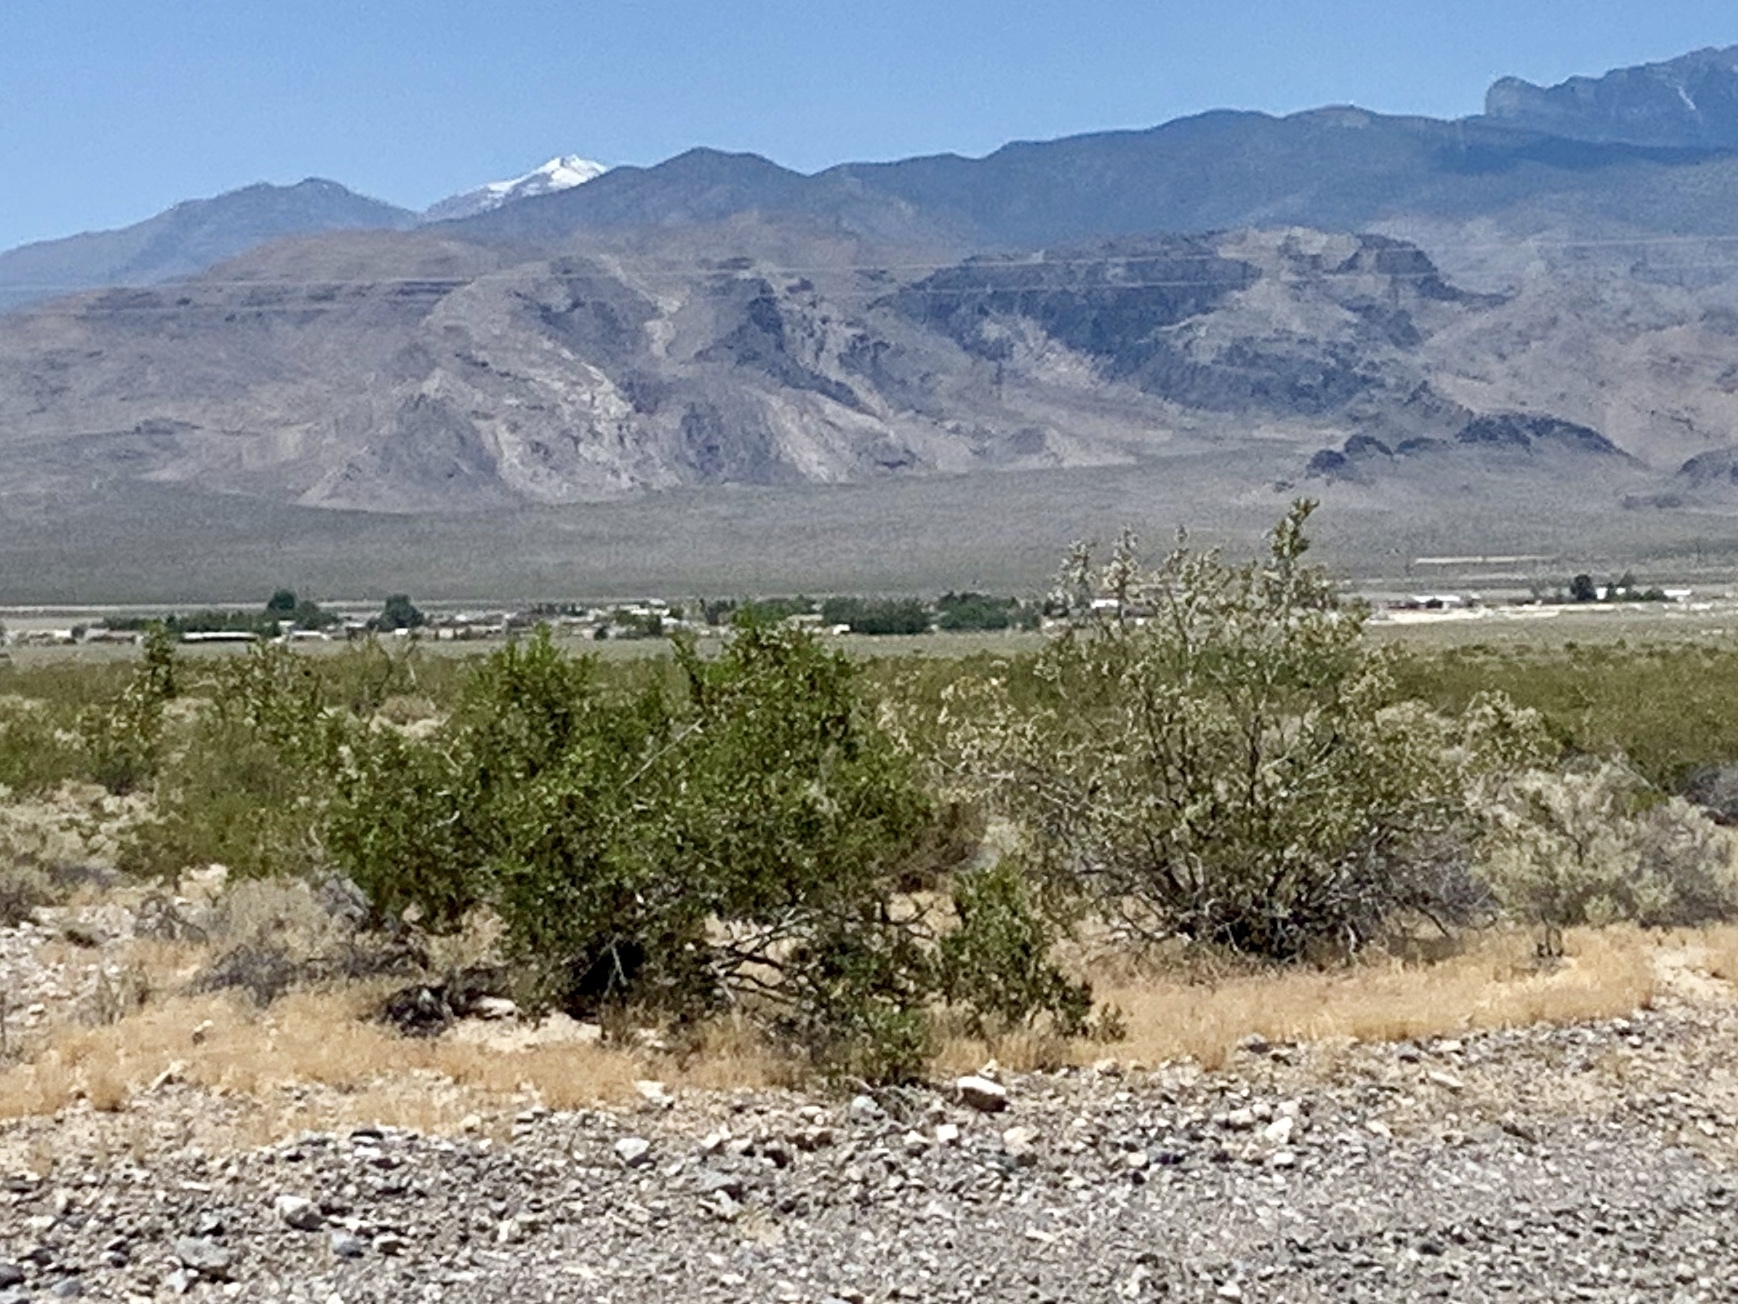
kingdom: Plantae
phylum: Tracheophyta
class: Magnoliopsida
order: Zygophyllales
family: Zygophyllaceae
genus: Larrea
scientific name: Larrea tridentata
